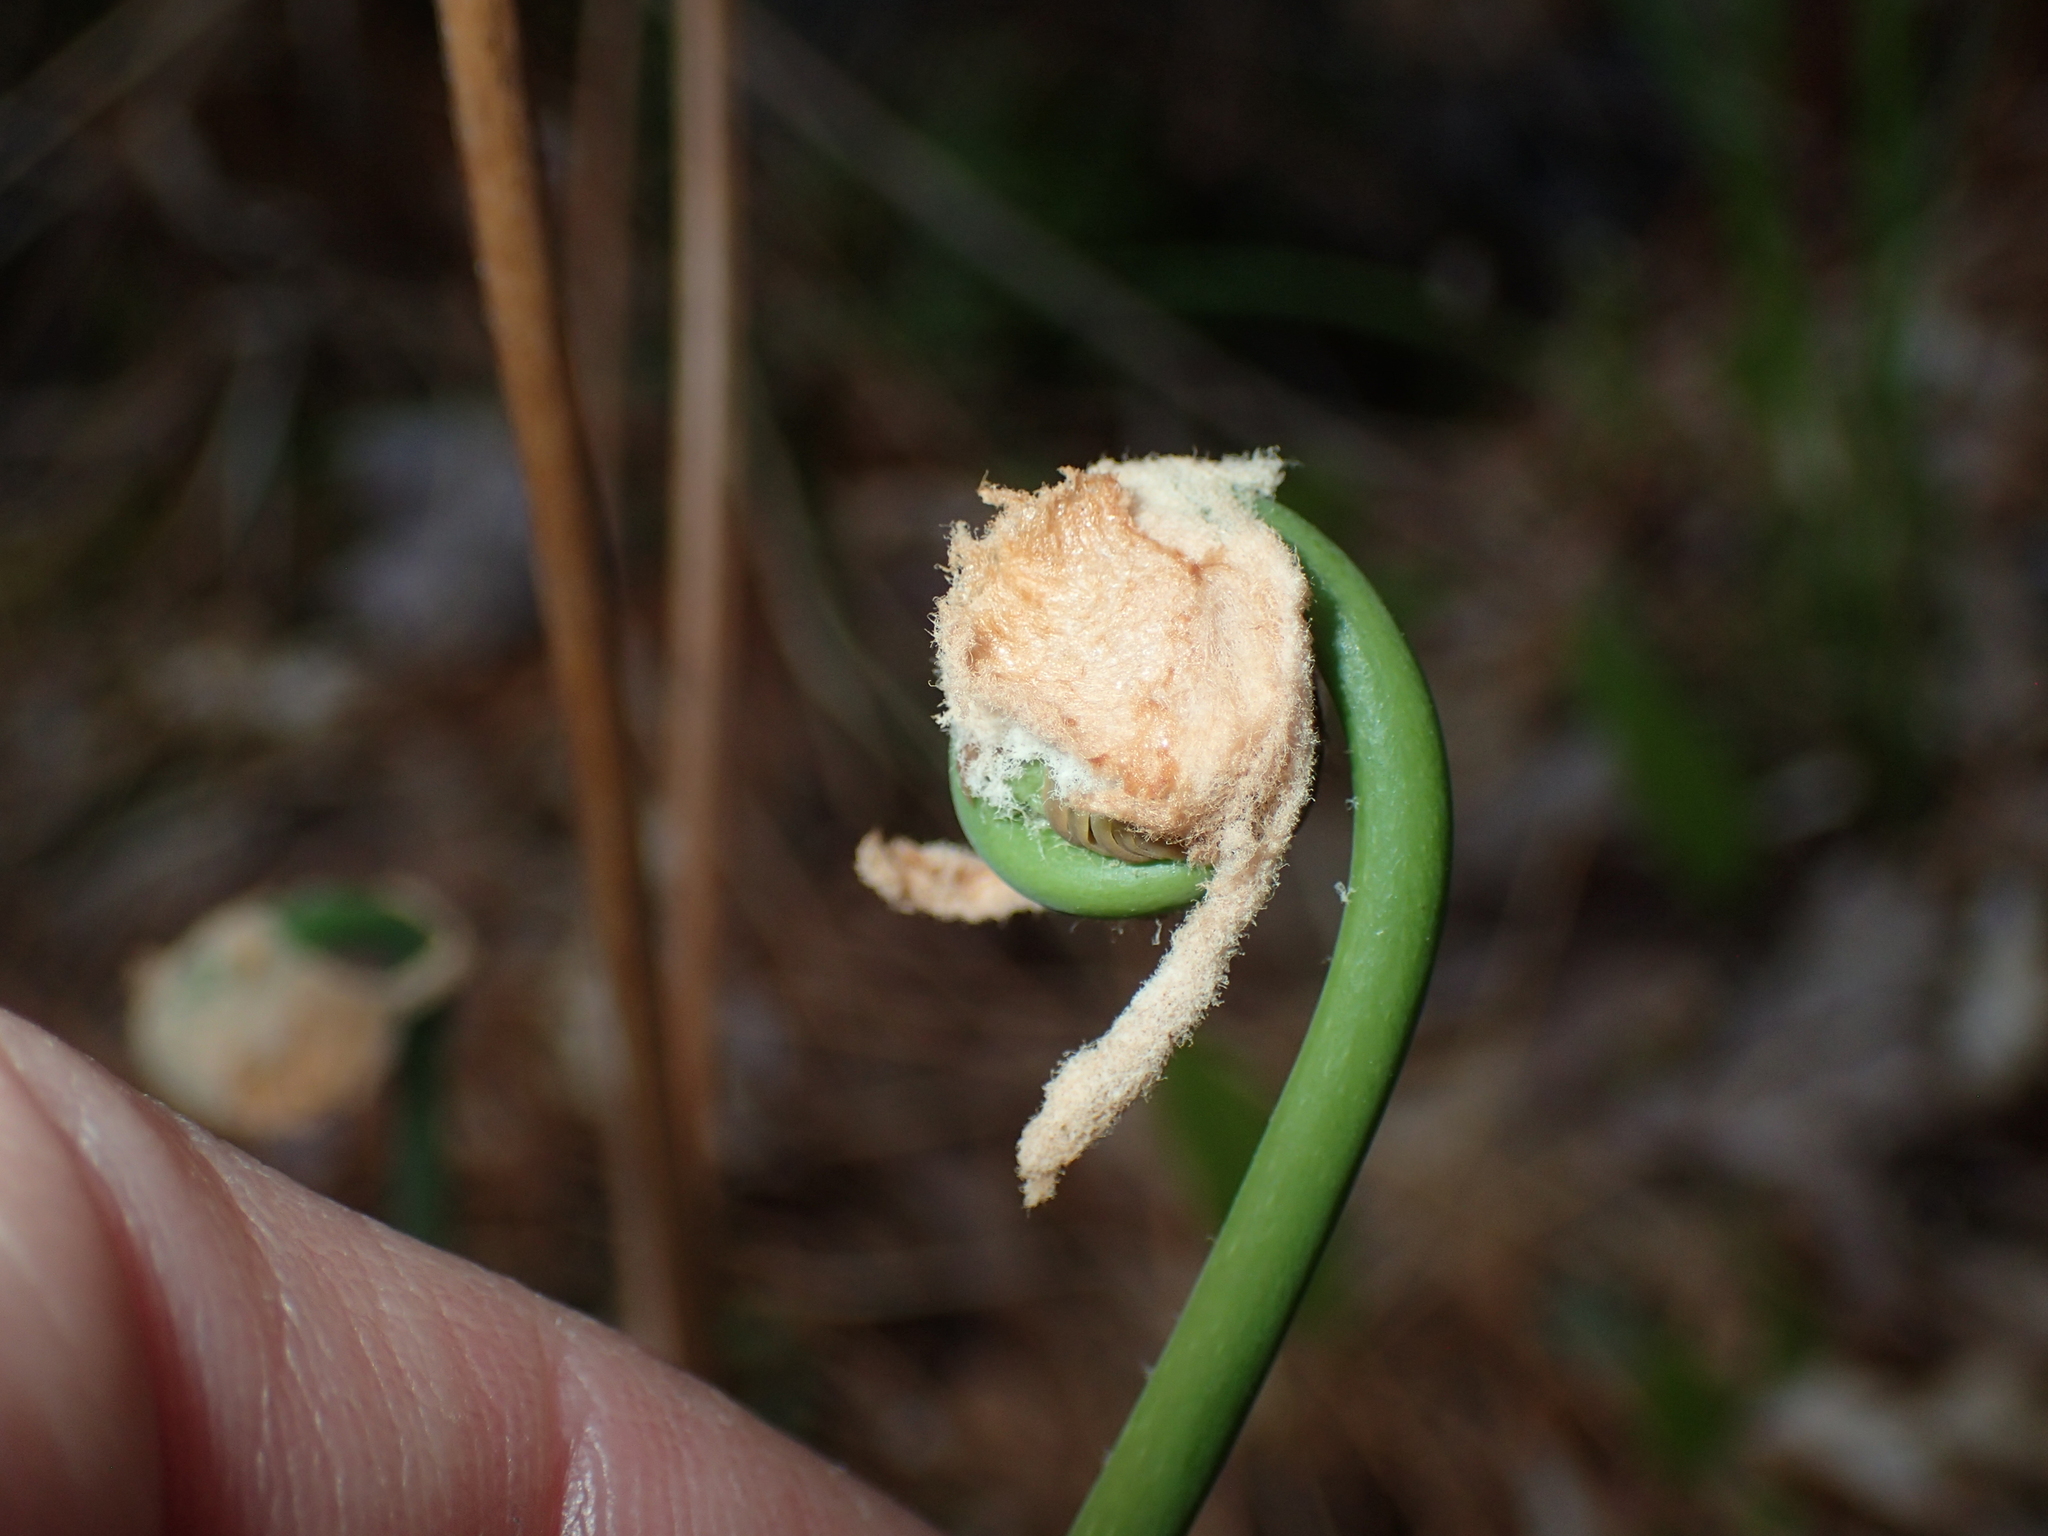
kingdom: Plantae
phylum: Tracheophyta
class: Polypodiopsida
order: Osmundales
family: Osmundaceae
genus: Osmunda
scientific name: Osmunda spectabilis
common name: American royal fern
